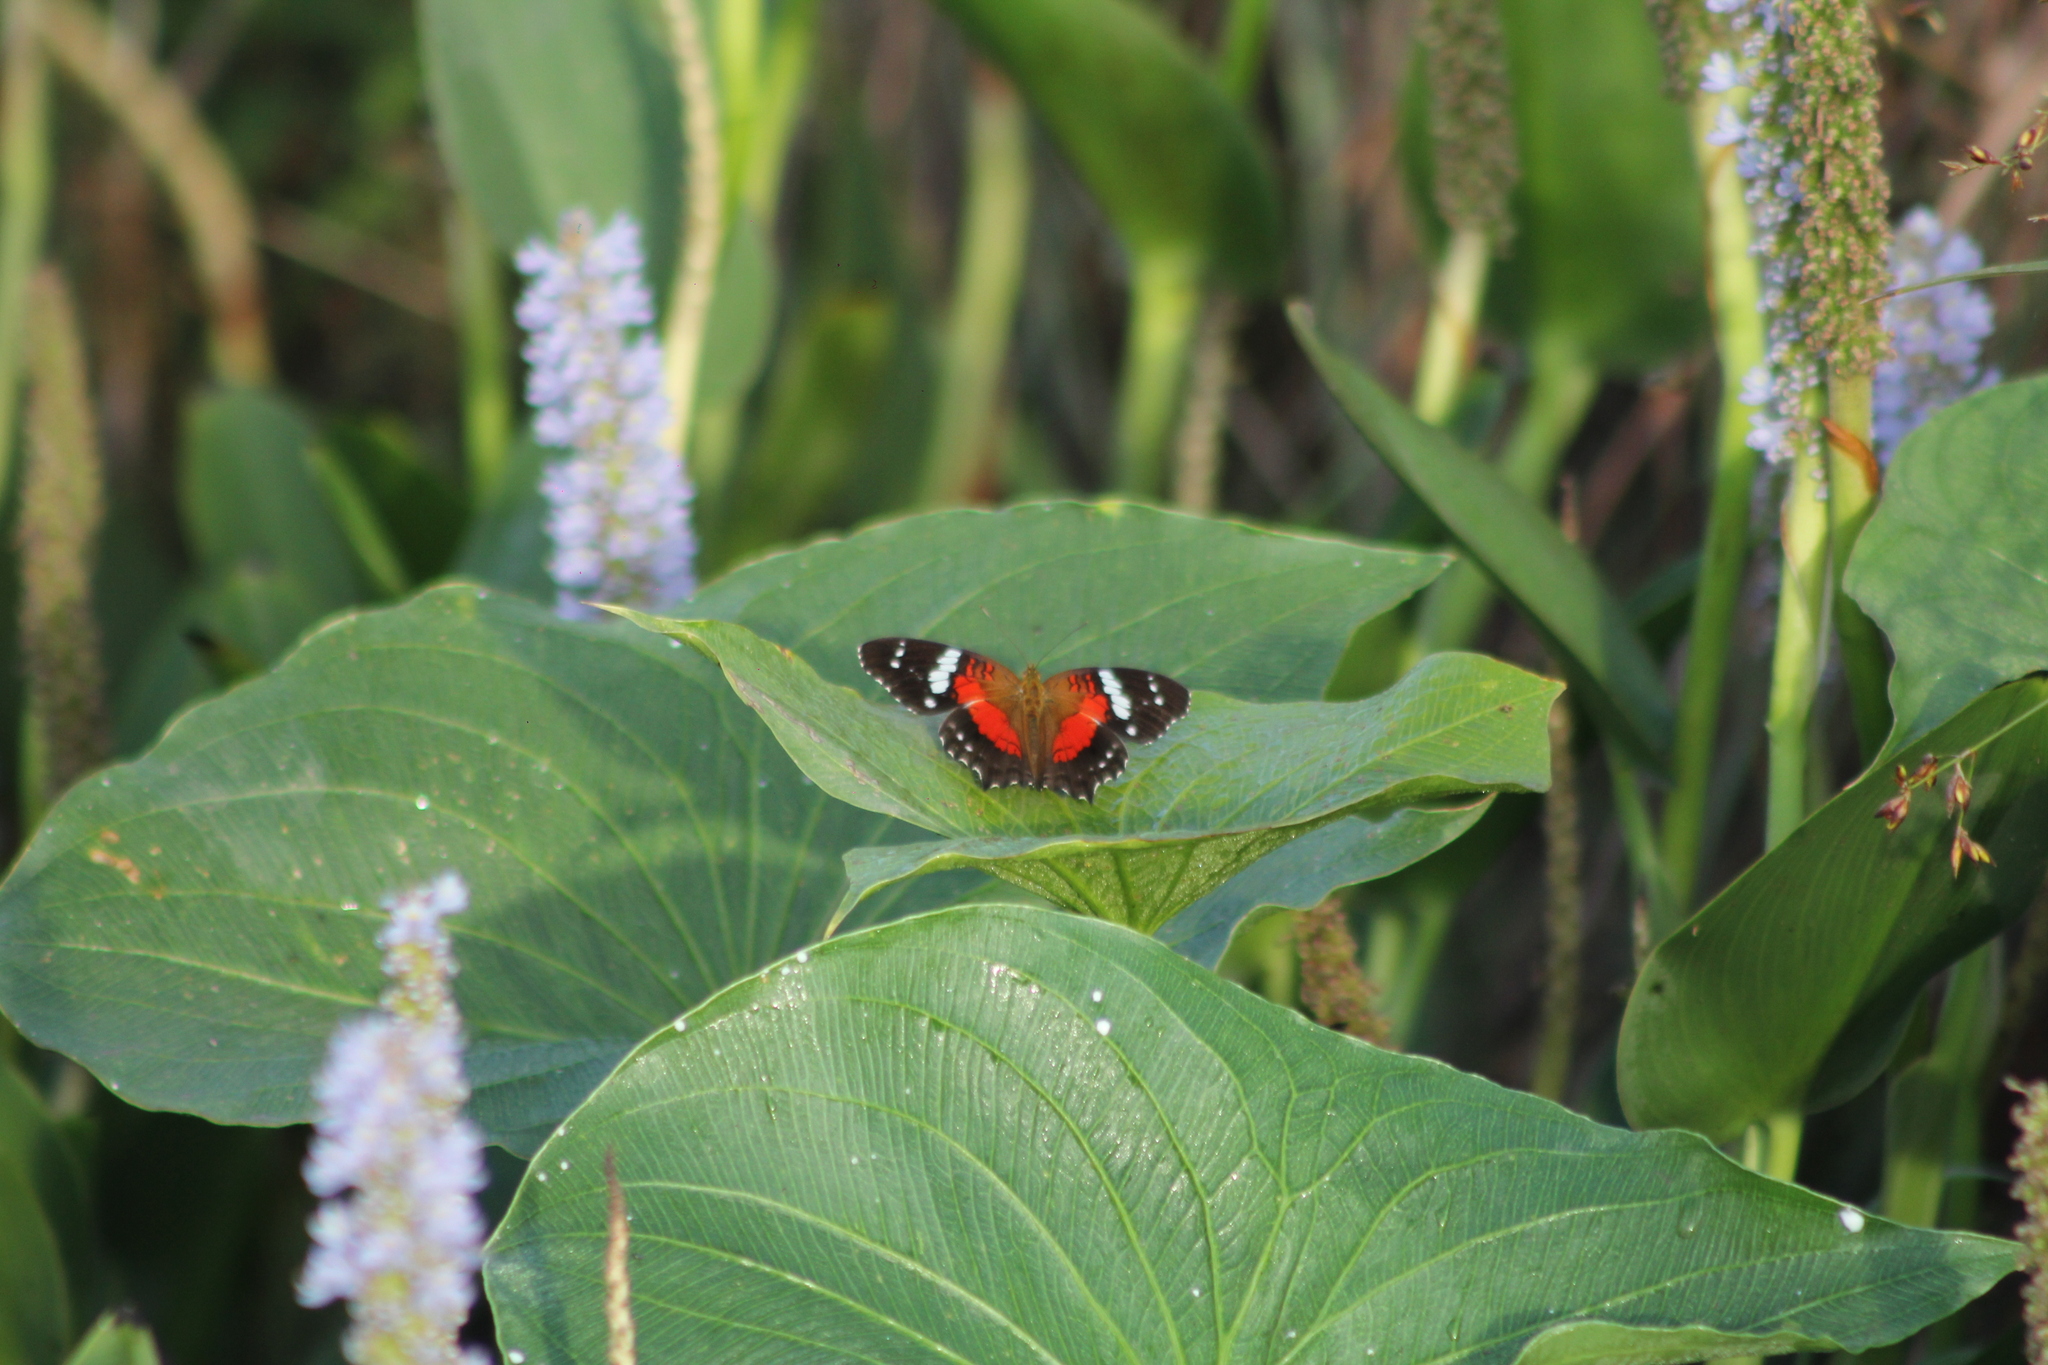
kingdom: Animalia
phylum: Arthropoda
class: Insecta
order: Lepidoptera
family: Nymphalidae
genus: Anartia
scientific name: Anartia amathea
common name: Red peacock
